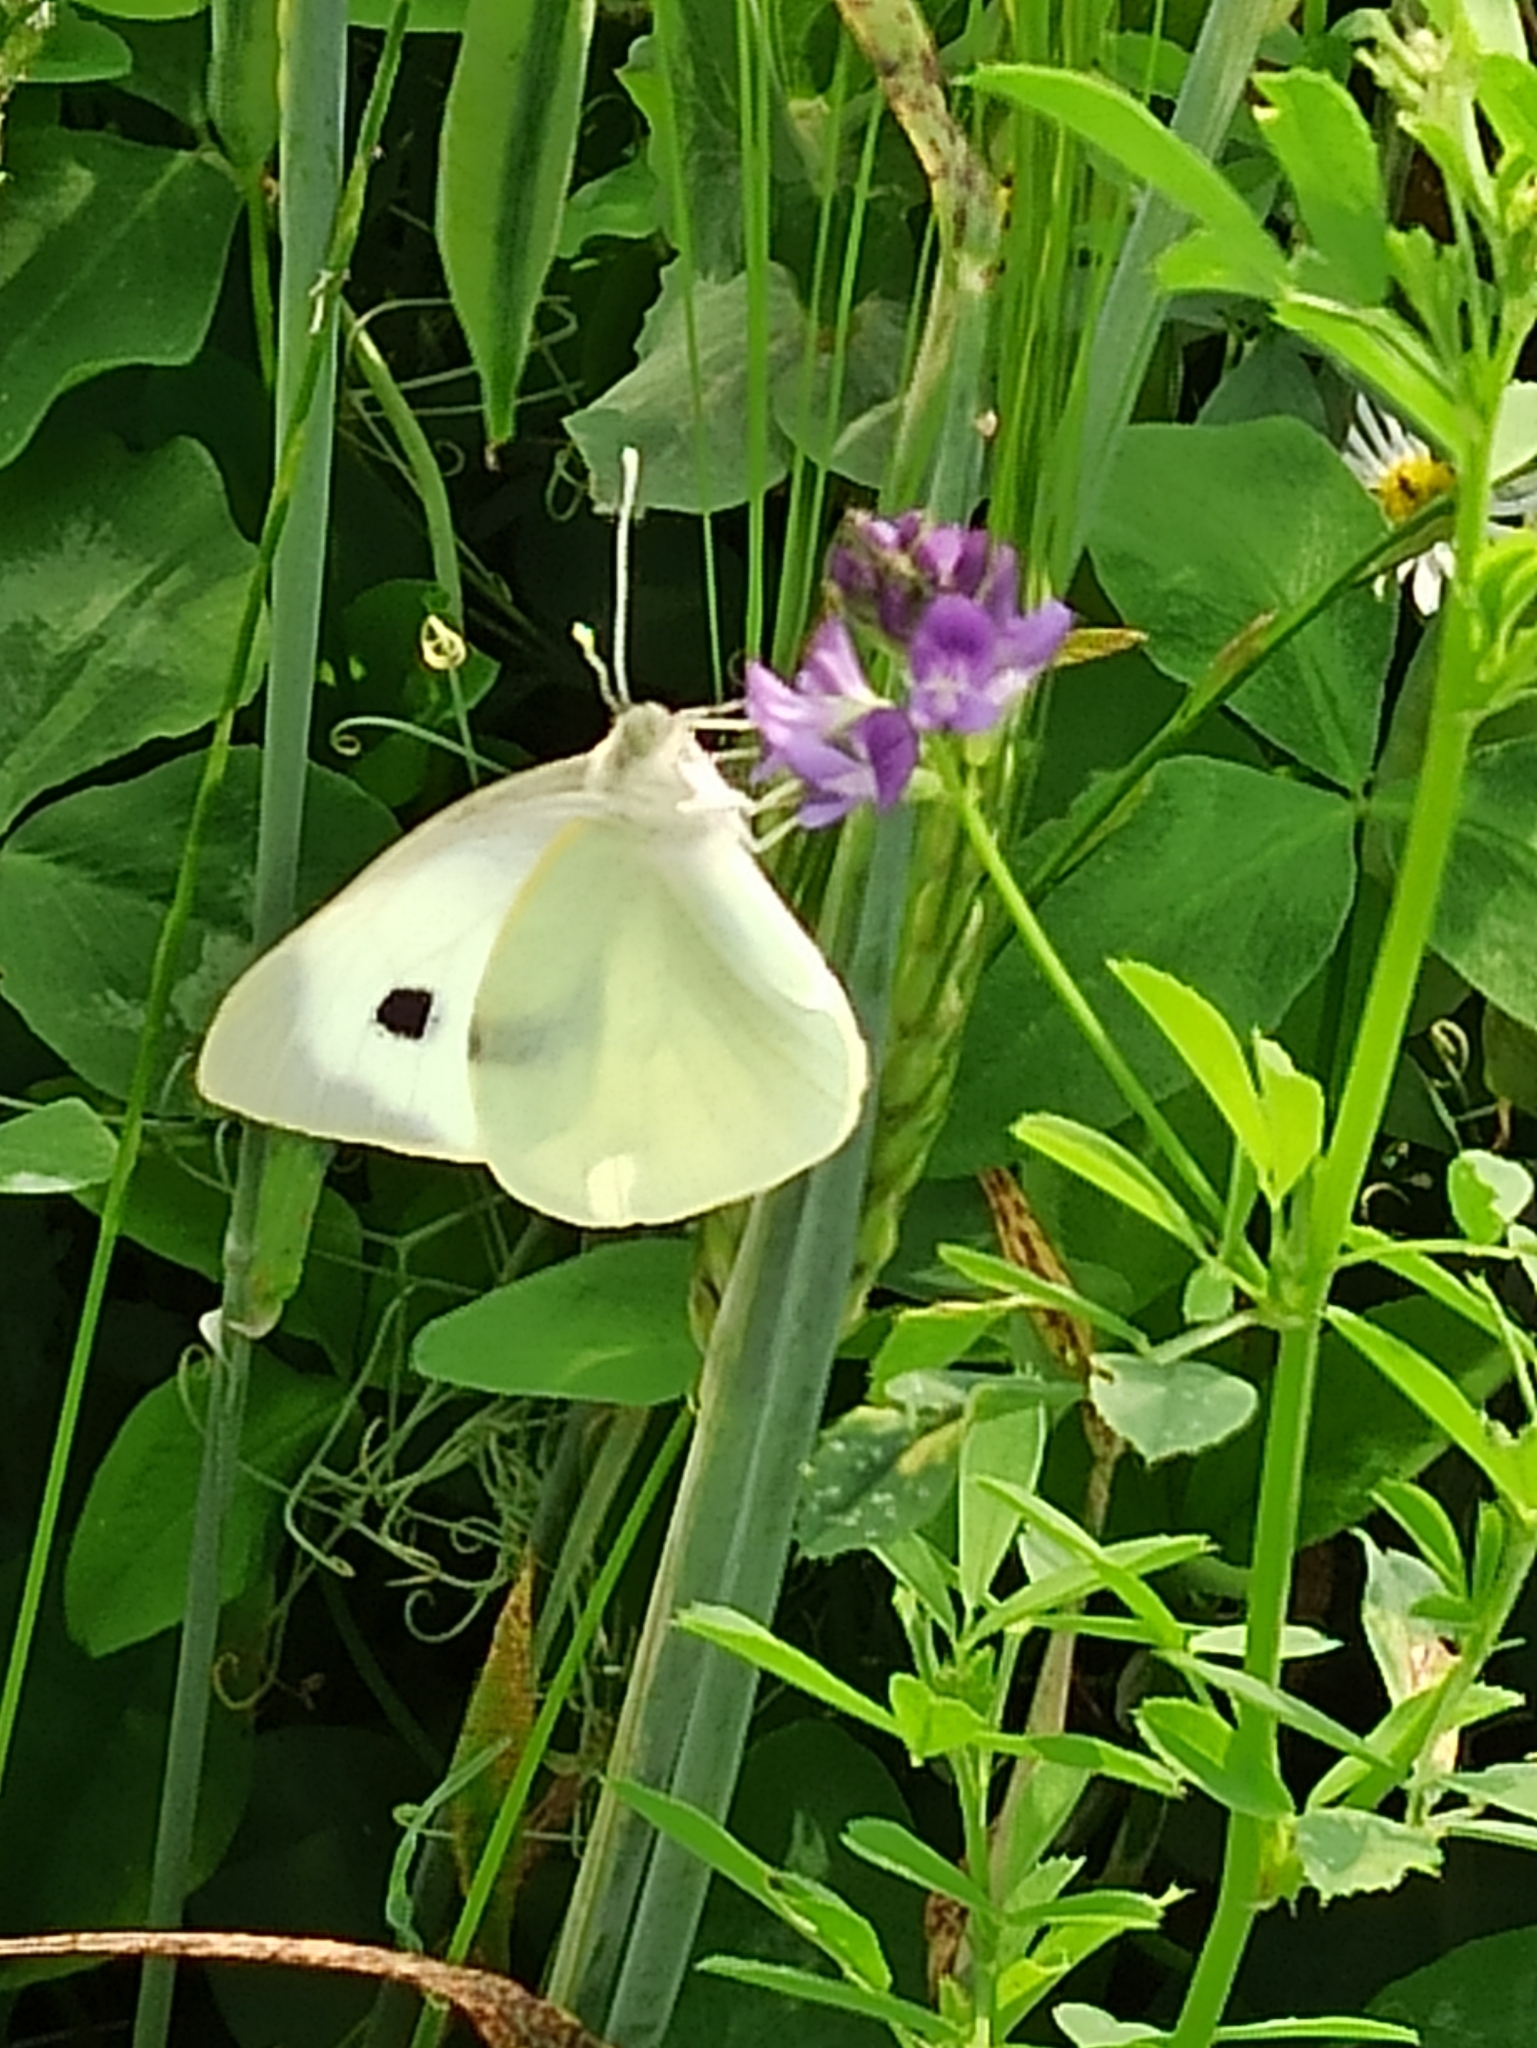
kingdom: Animalia
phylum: Arthropoda
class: Insecta
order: Lepidoptera
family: Pieridae
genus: Pieris
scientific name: Pieris rapae
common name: Small white
